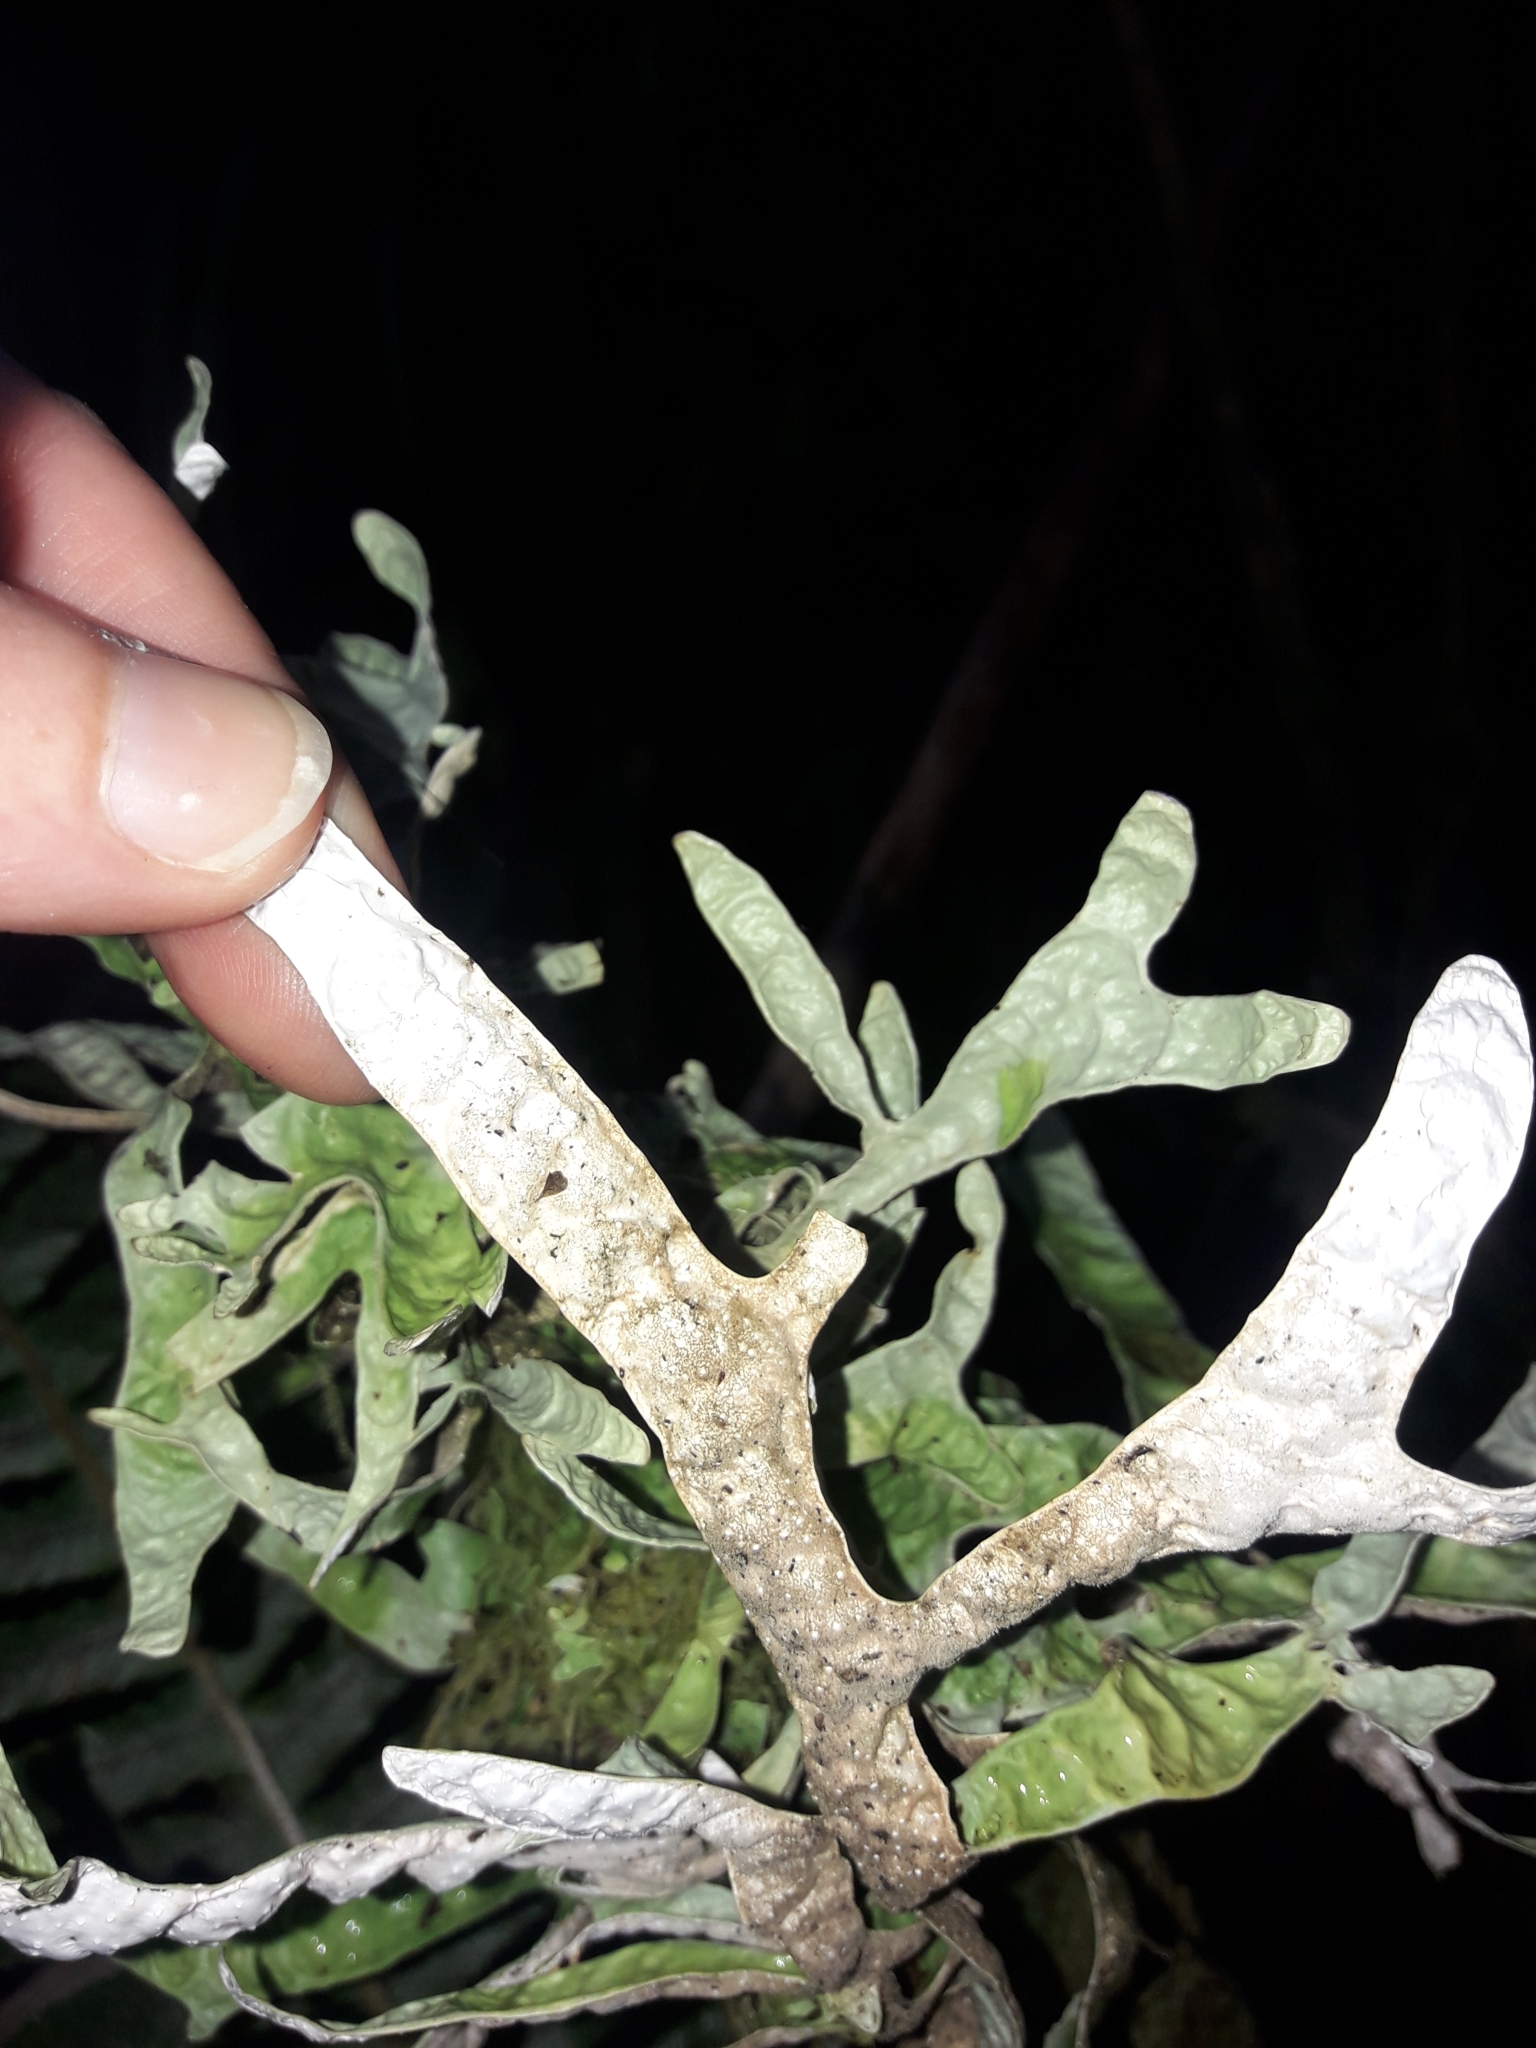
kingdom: Fungi
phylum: Ascomycota
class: Lecanoromycetes
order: Peltigerales
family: Lobariaceae
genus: Pseudocyphellaria
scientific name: Pseudocyphellaria rufovirescens
